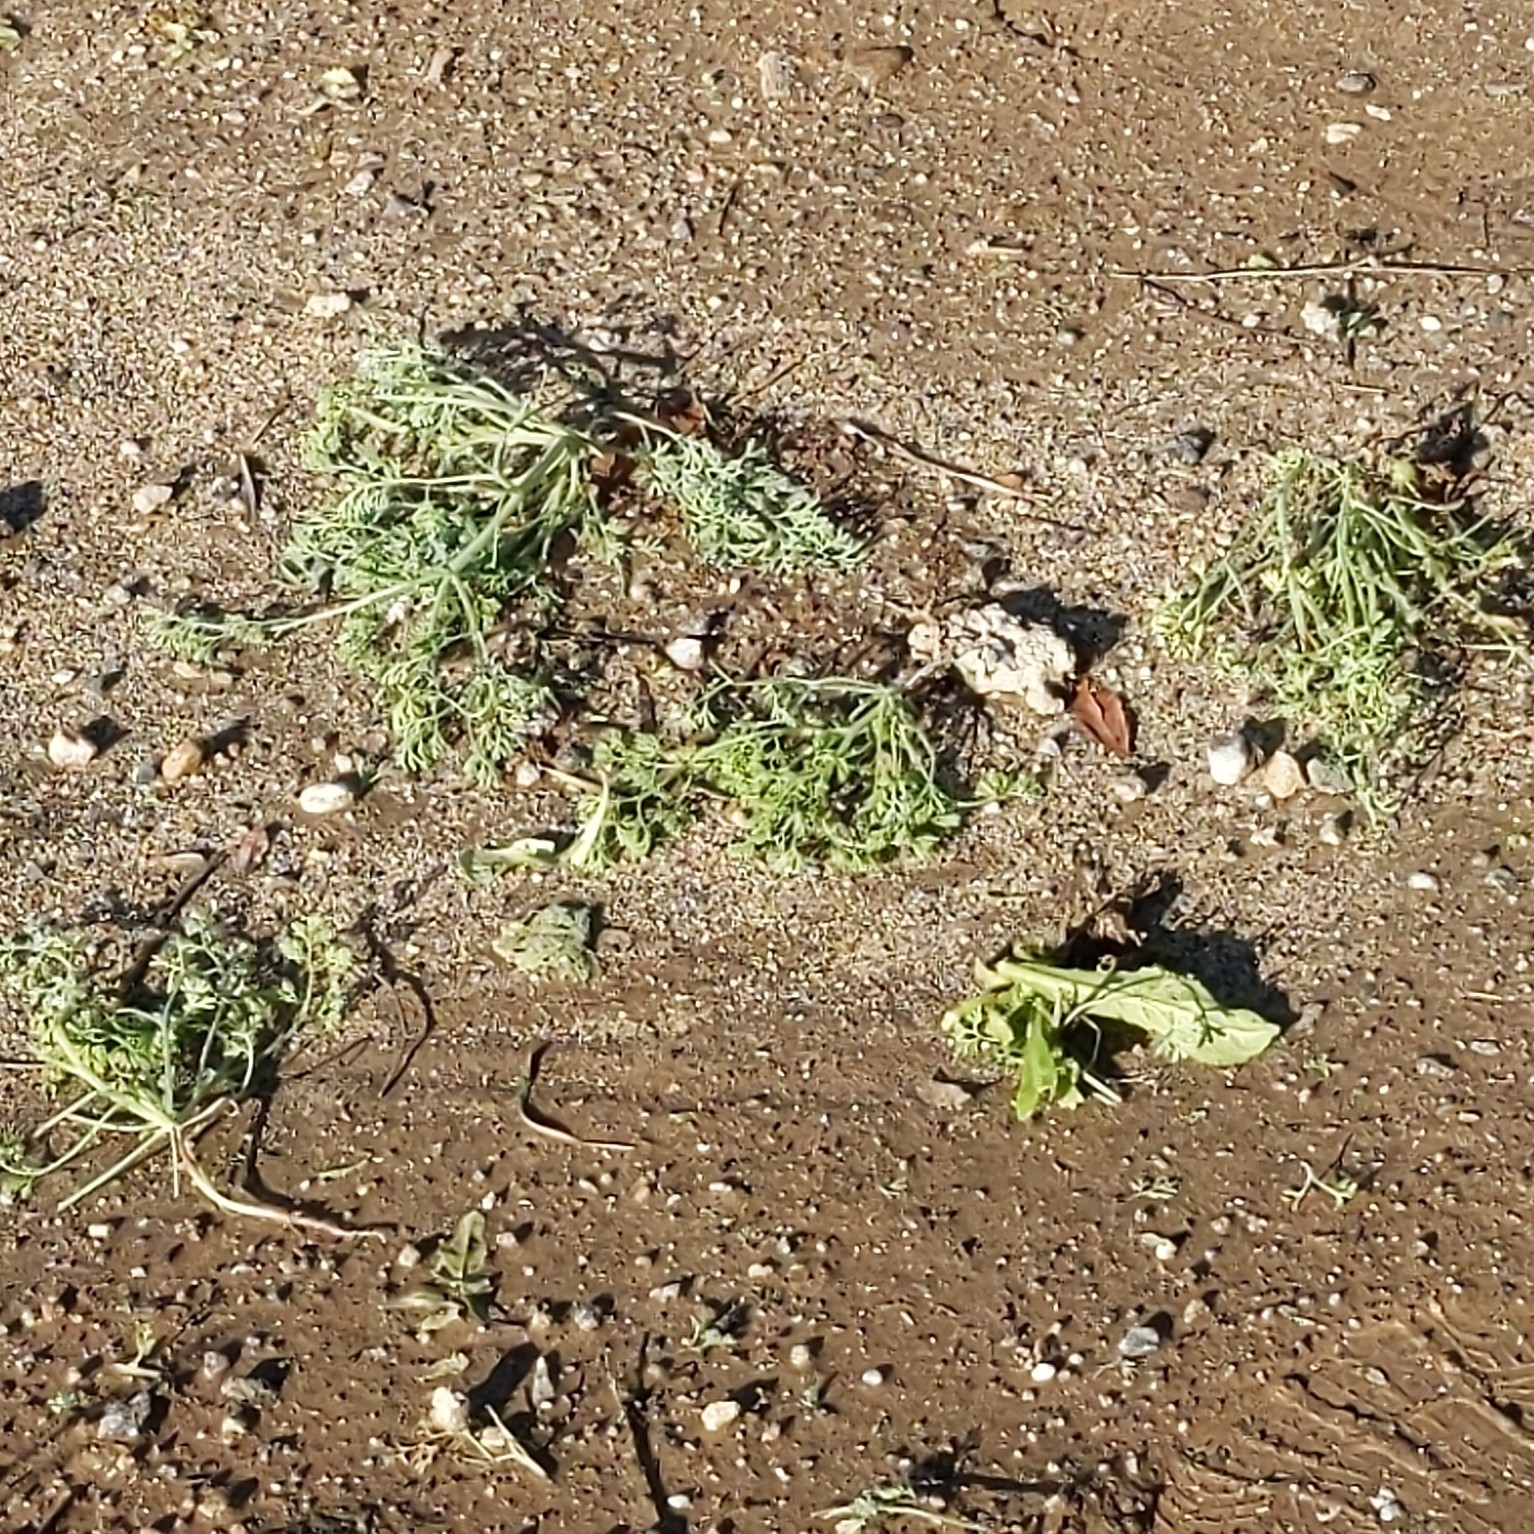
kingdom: Plantae
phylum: Tracheophyta
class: Magnoliopsida
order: Ranunculales
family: Papaveraceae
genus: Fumaria
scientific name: Fumaria parviflora
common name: Fine-leaved fumitory
